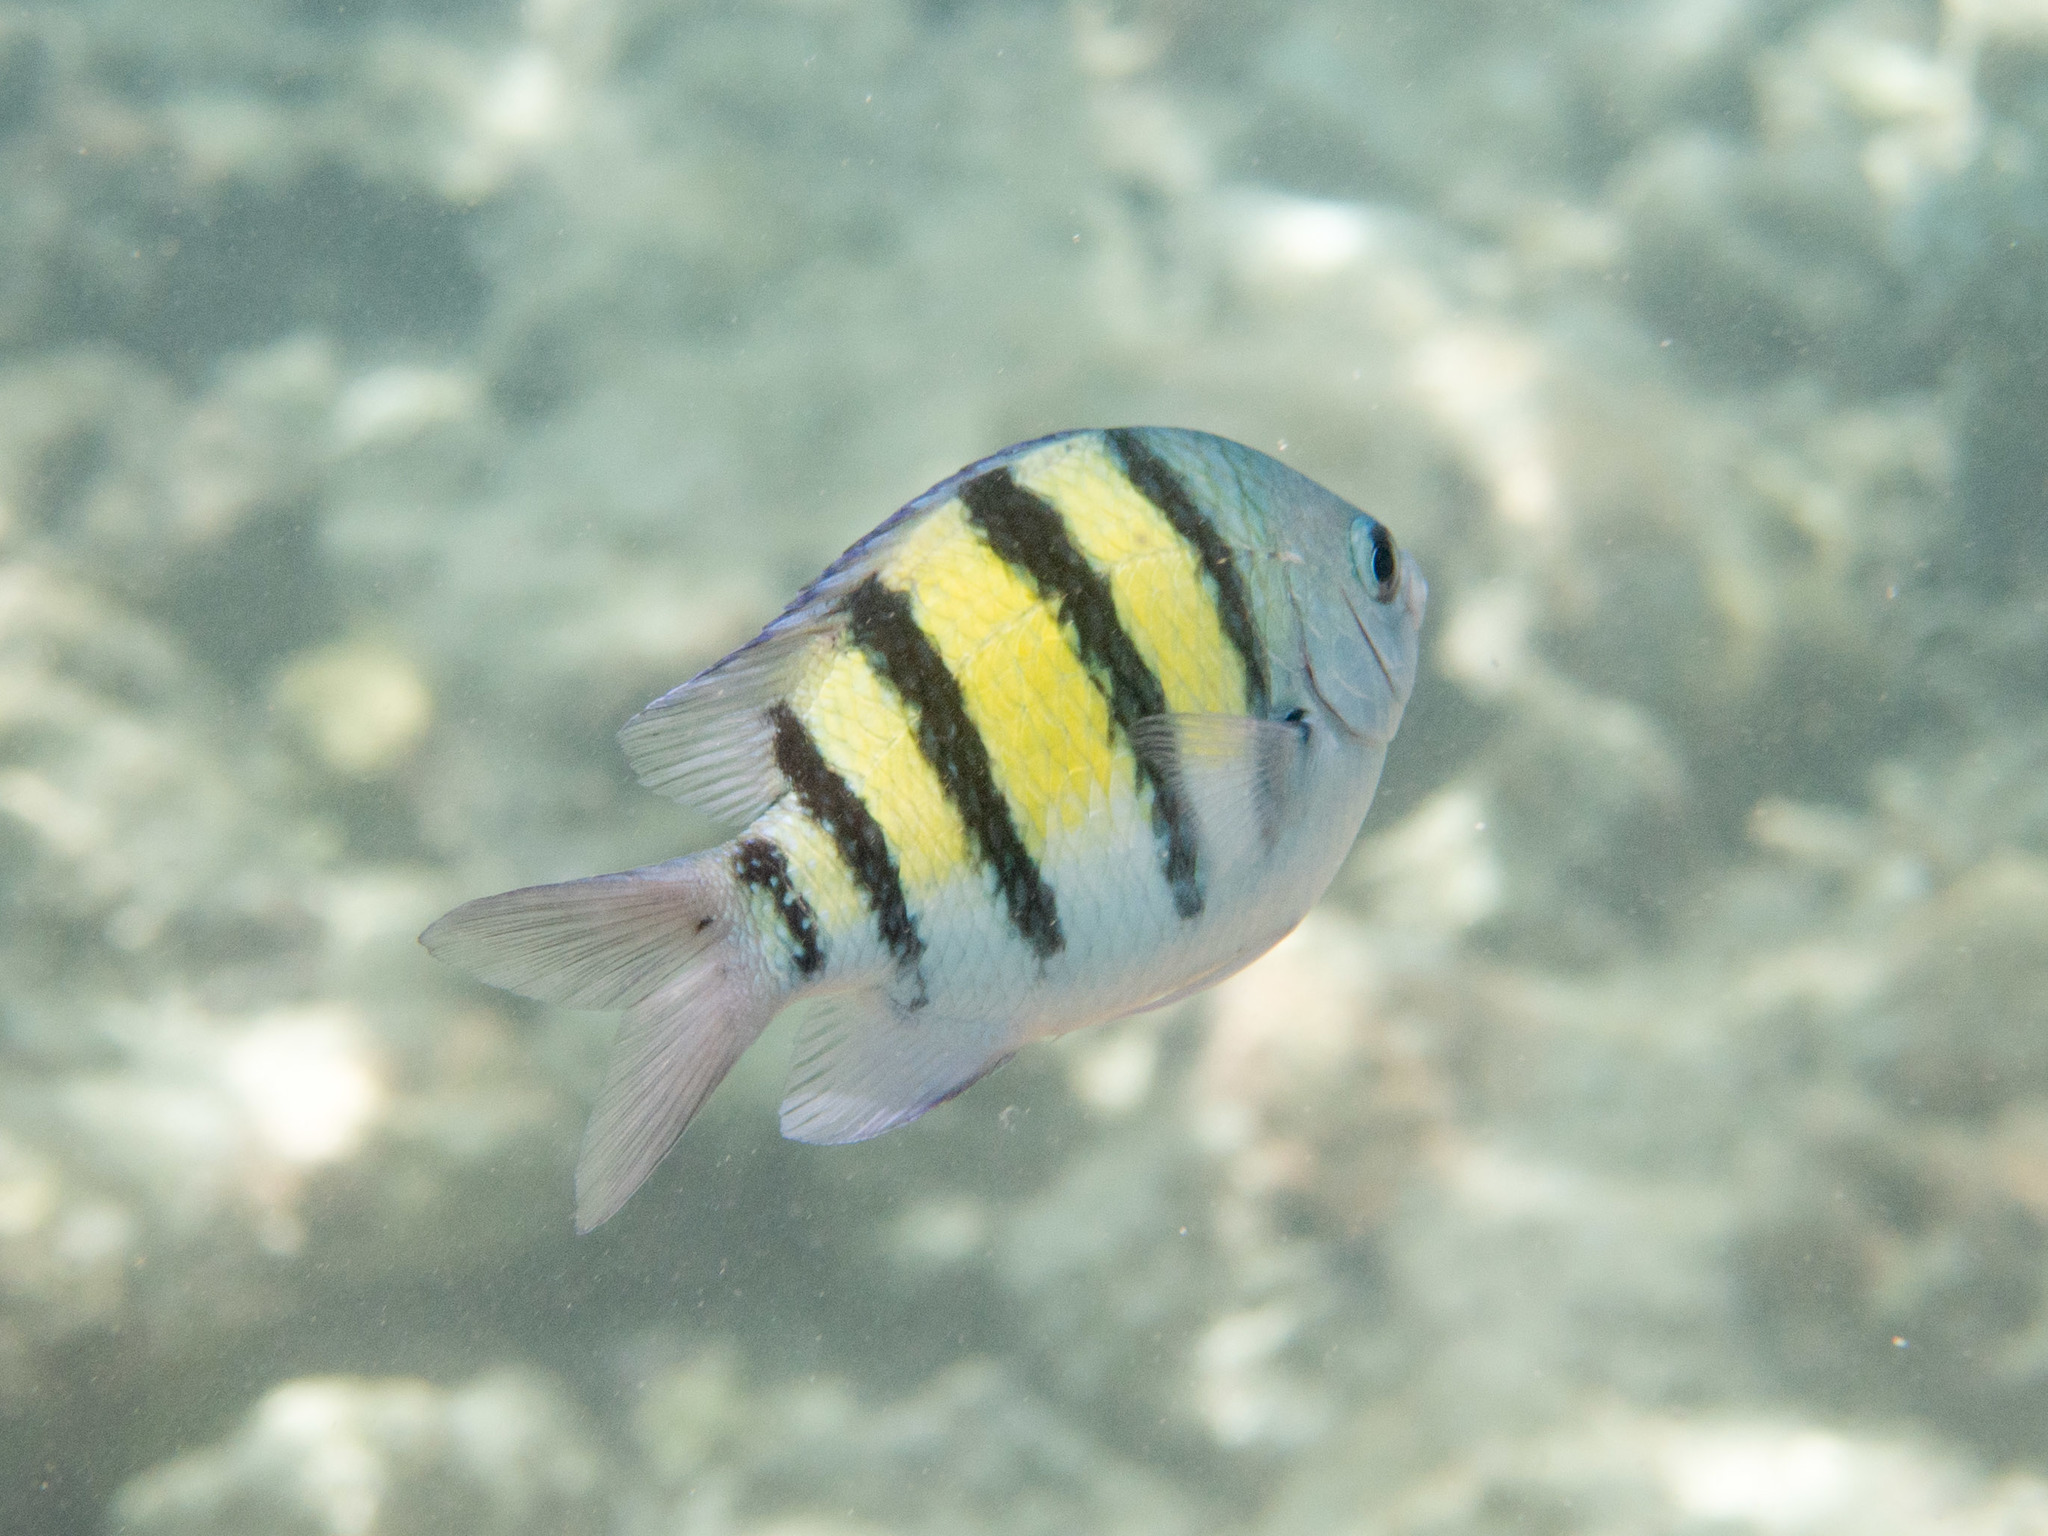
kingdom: Animalia
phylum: Chordata
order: Perciformes
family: Pomacentridae
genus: Abudefduf
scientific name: Abudefduf vaigiensis
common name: Indo-pacific sergeant
